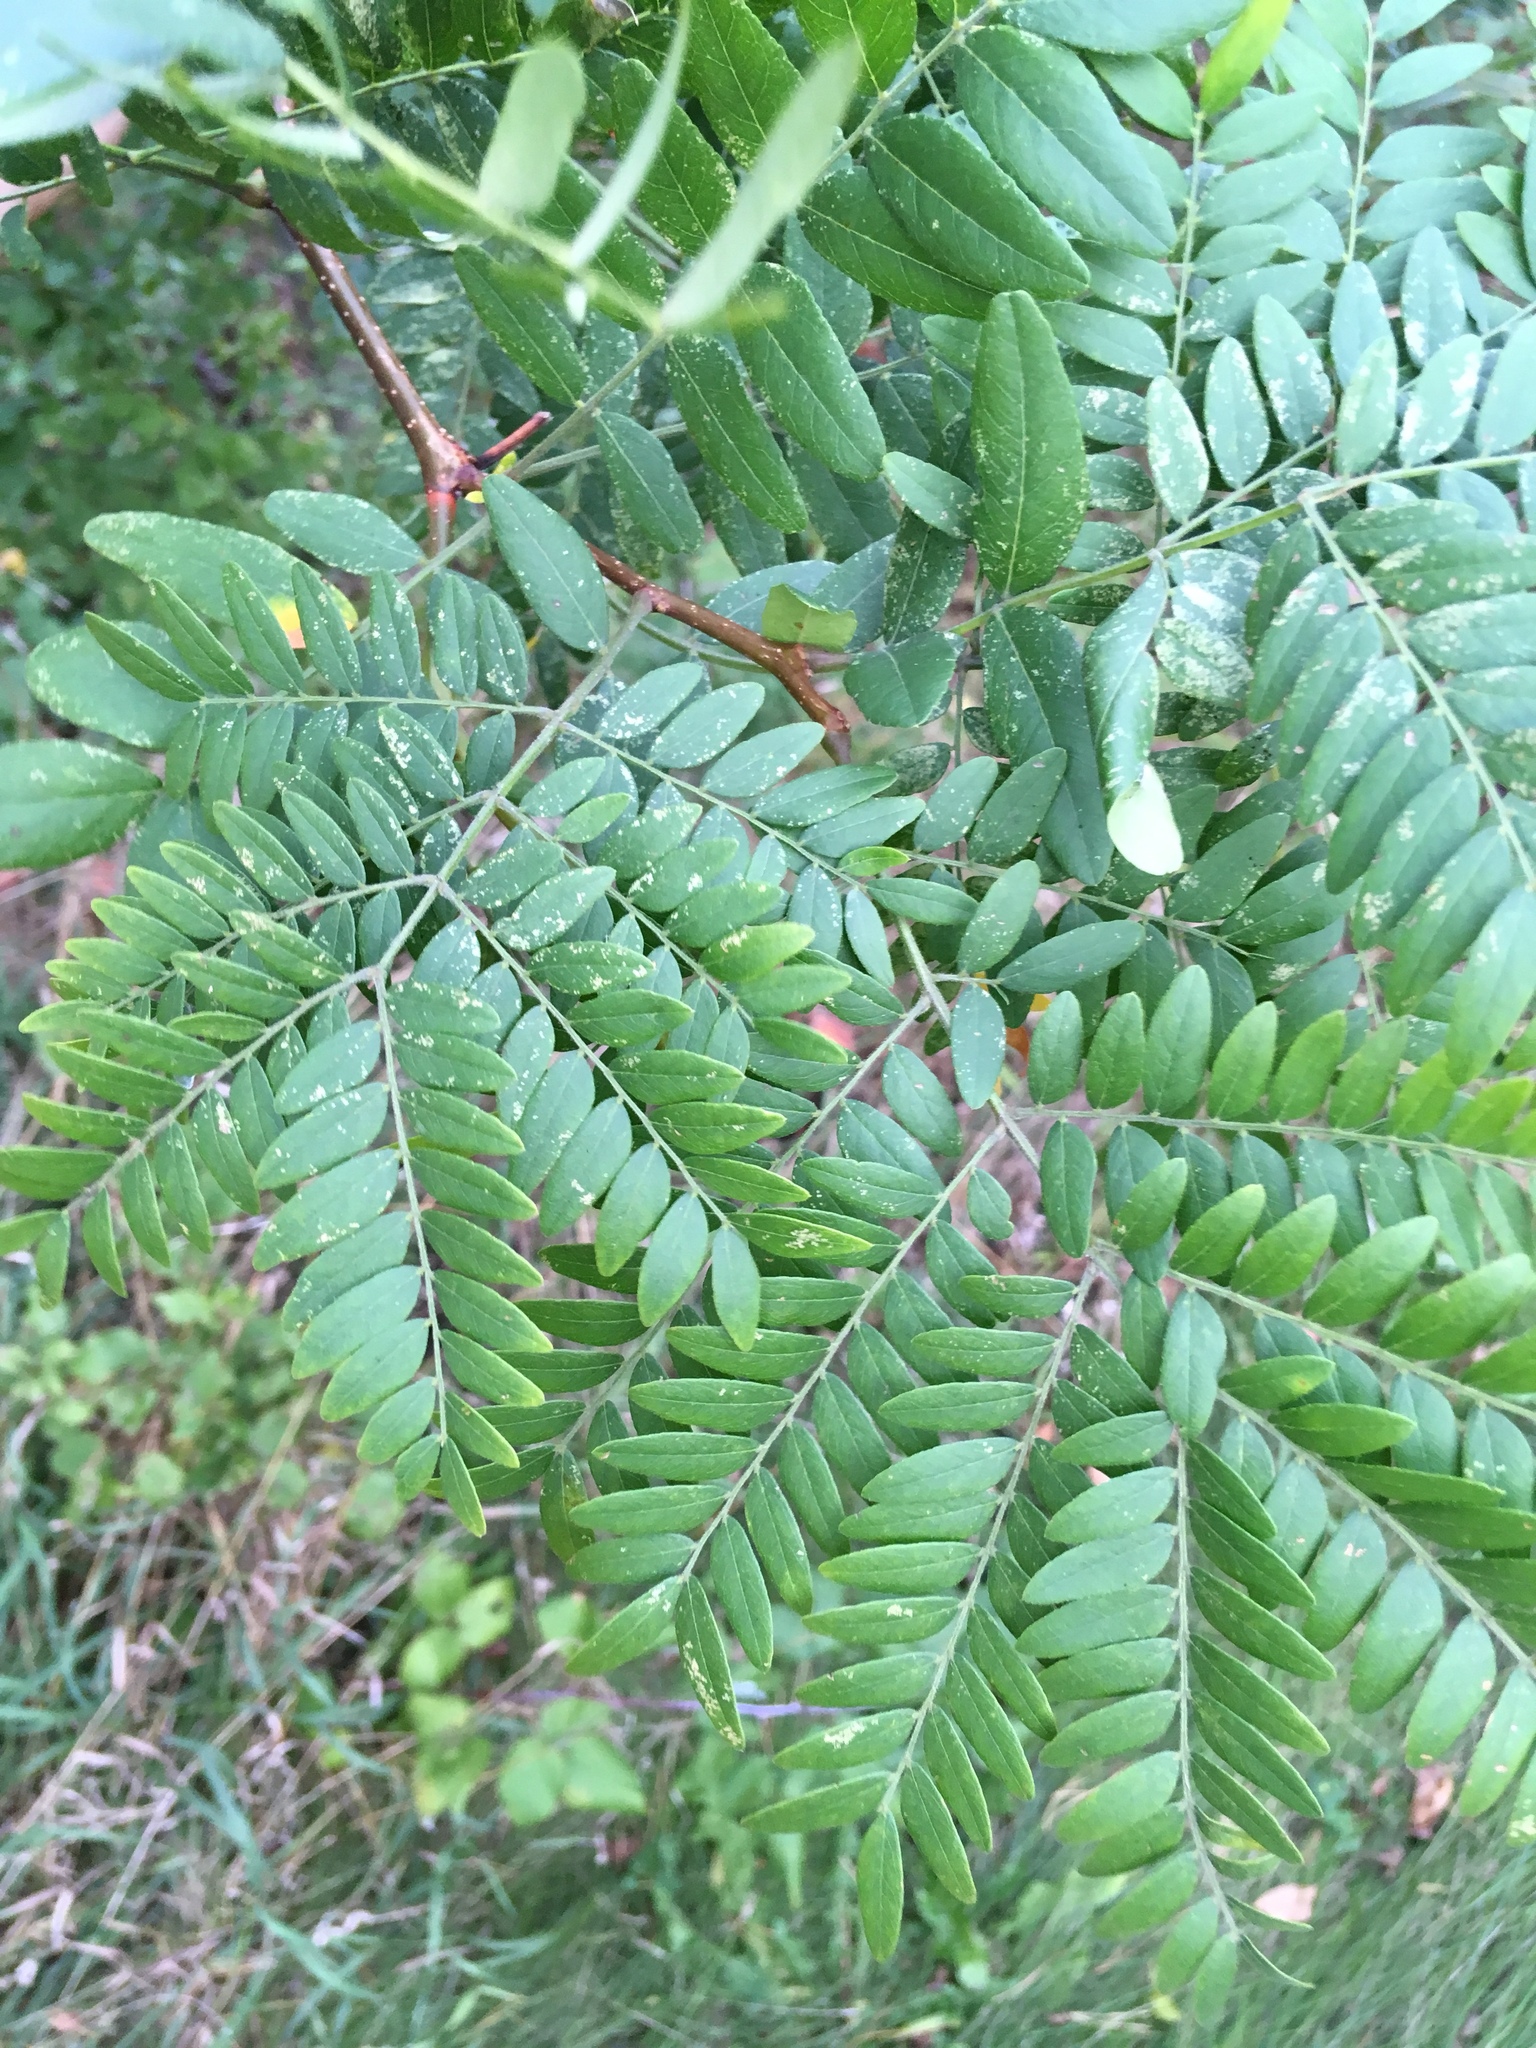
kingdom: Plantae
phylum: Tracheophyta
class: Magnoliopsida
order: Fabales
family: Fabaceae
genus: Gleditsia
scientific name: Gleditsia triacanthos
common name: Common honeylocust
